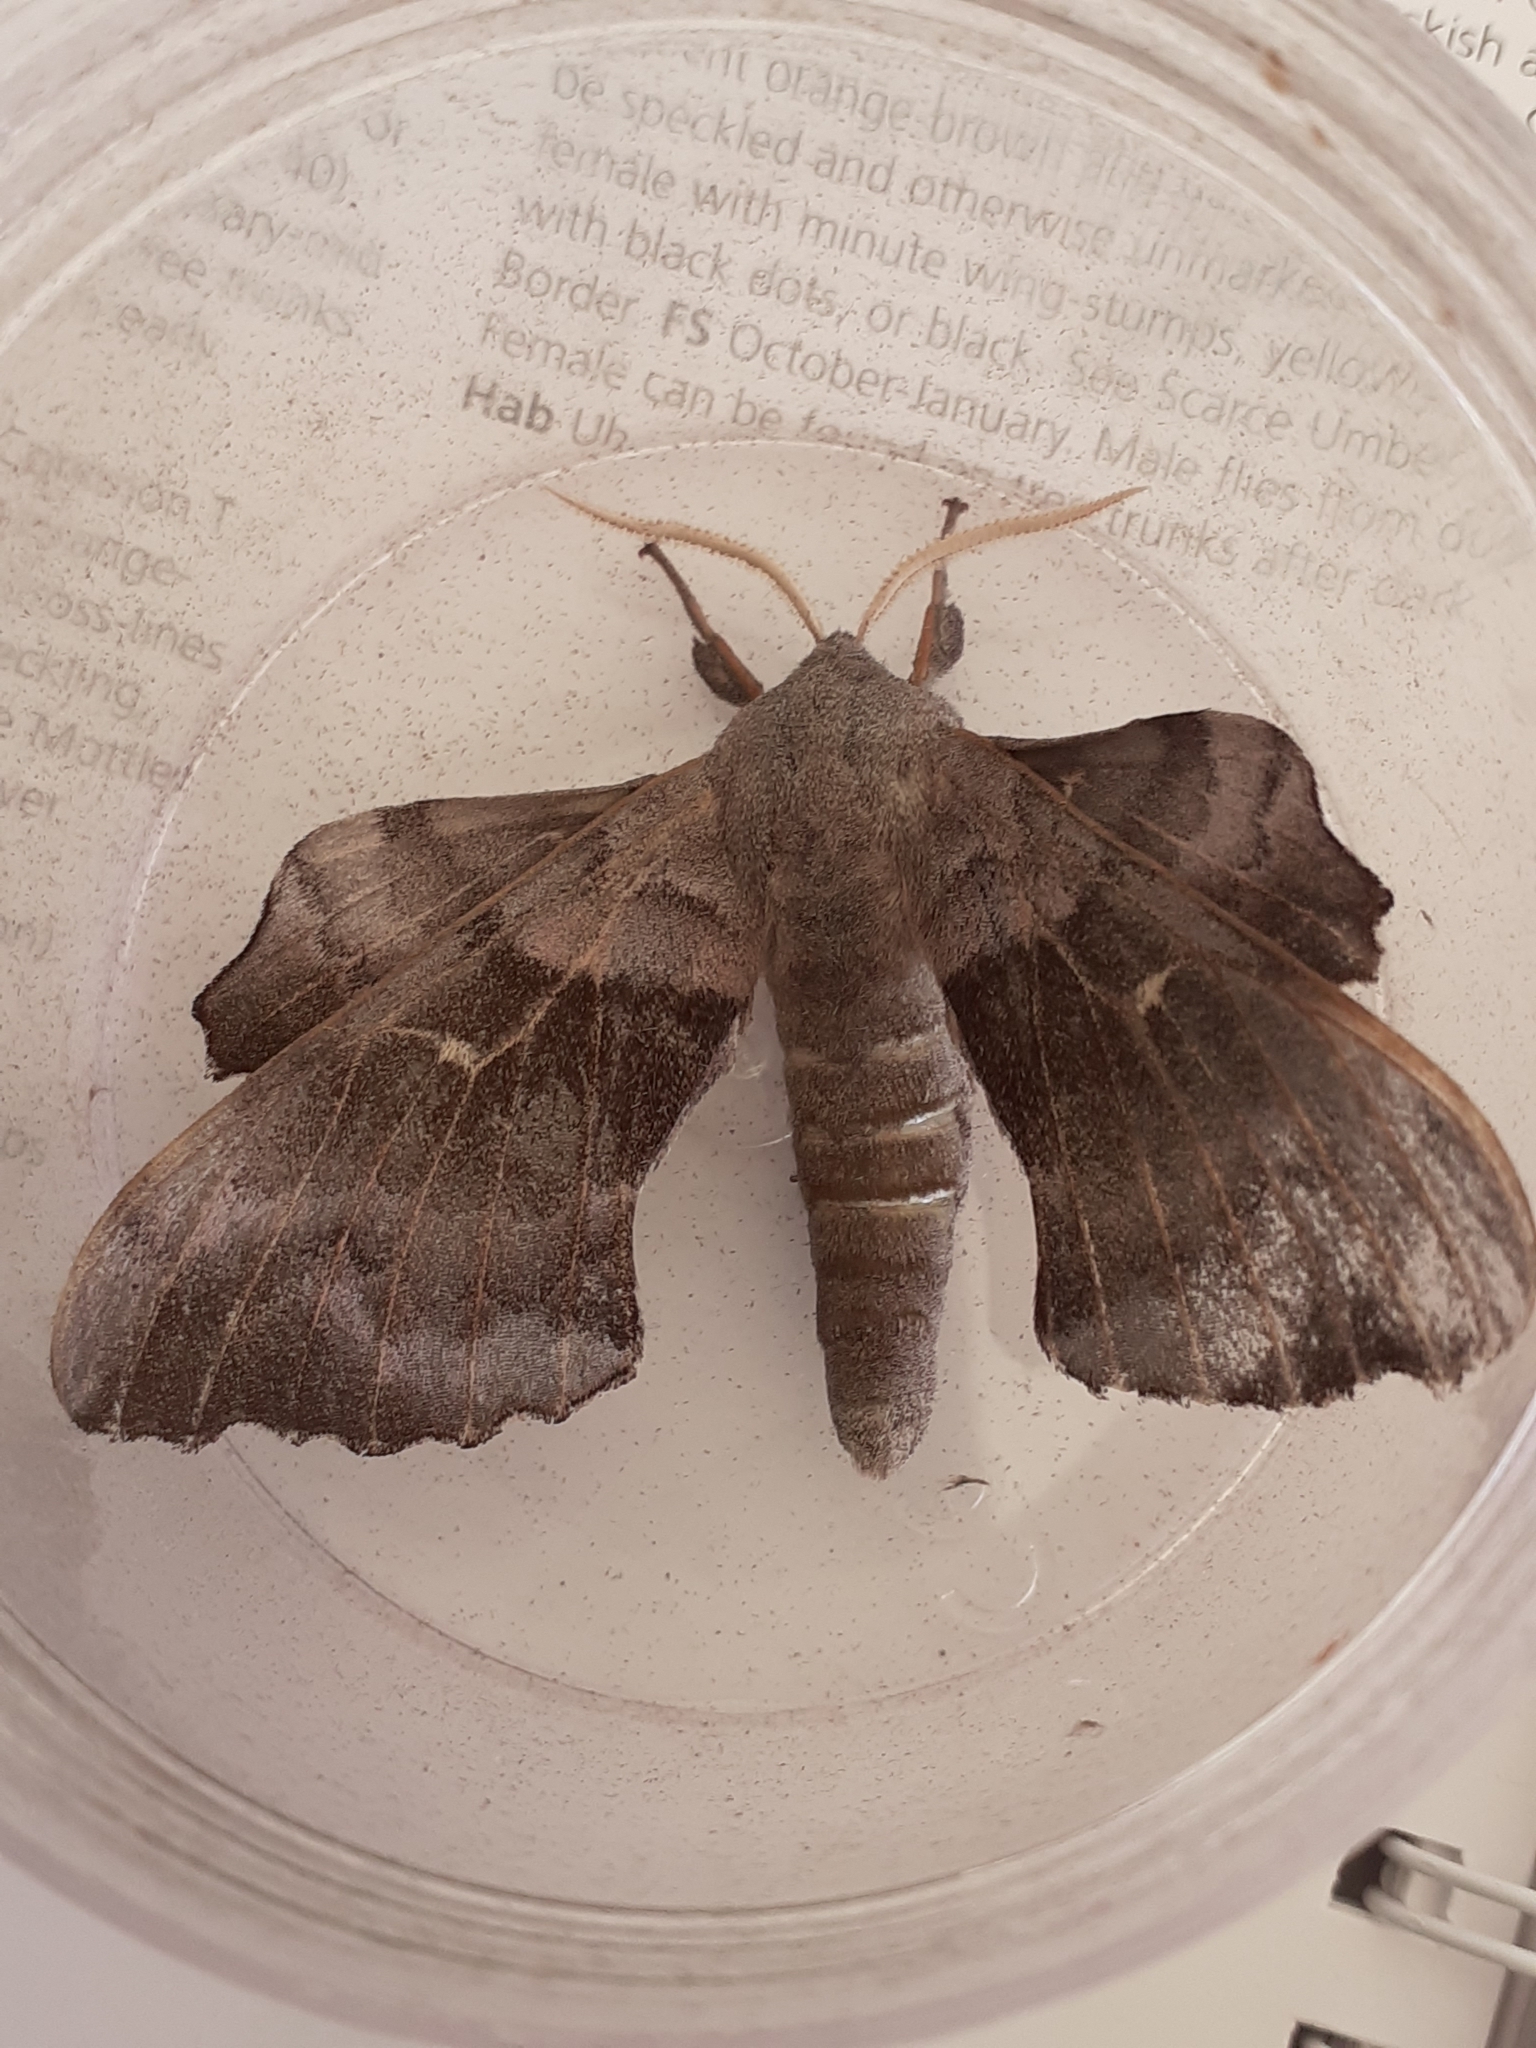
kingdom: Animalia
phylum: Arthropoda
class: Insecta
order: Lepidoptera
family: Sphingidae
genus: Laothoe
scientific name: Laothoe populi
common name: Poplar hawk-moth
